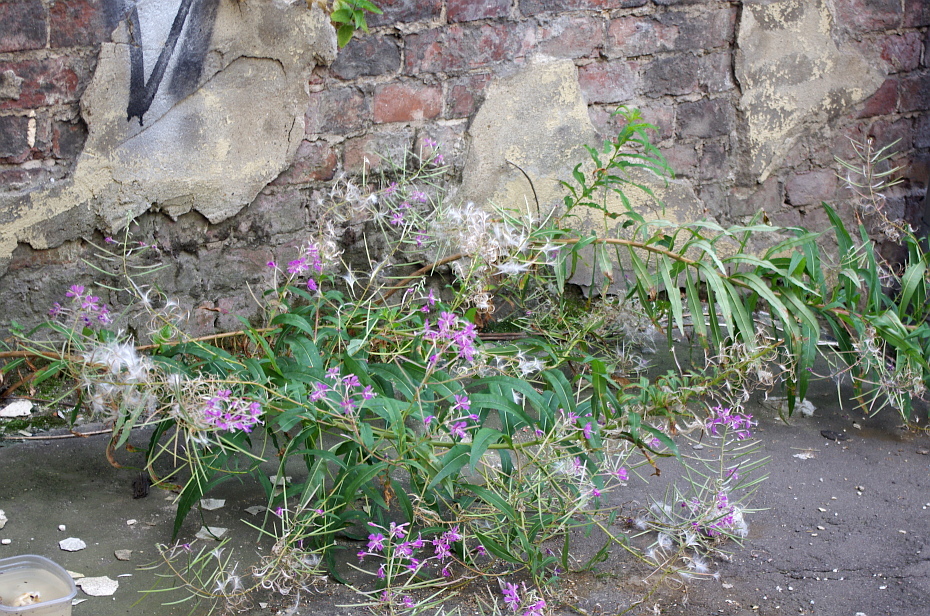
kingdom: Plantae
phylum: Tracheophyta
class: Magnoliopsida
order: Myrtales
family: Onagraceae
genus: Chamaenerion
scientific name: Chamaenerion angustifolium
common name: Fireweed
